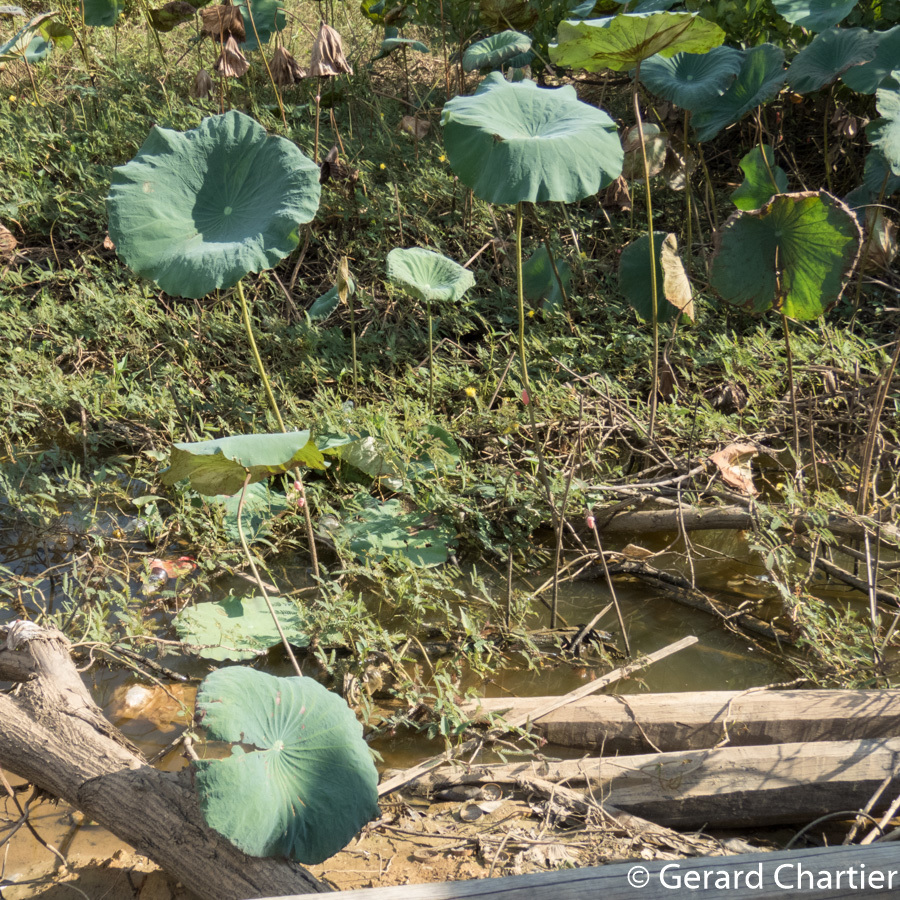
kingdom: Plantae
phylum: Tracheophyta
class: Magnoliopsida
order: Proteales
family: Nelumbonaceae
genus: Nelumbo
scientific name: Nelumbo nucifera
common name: Sacred lotus
